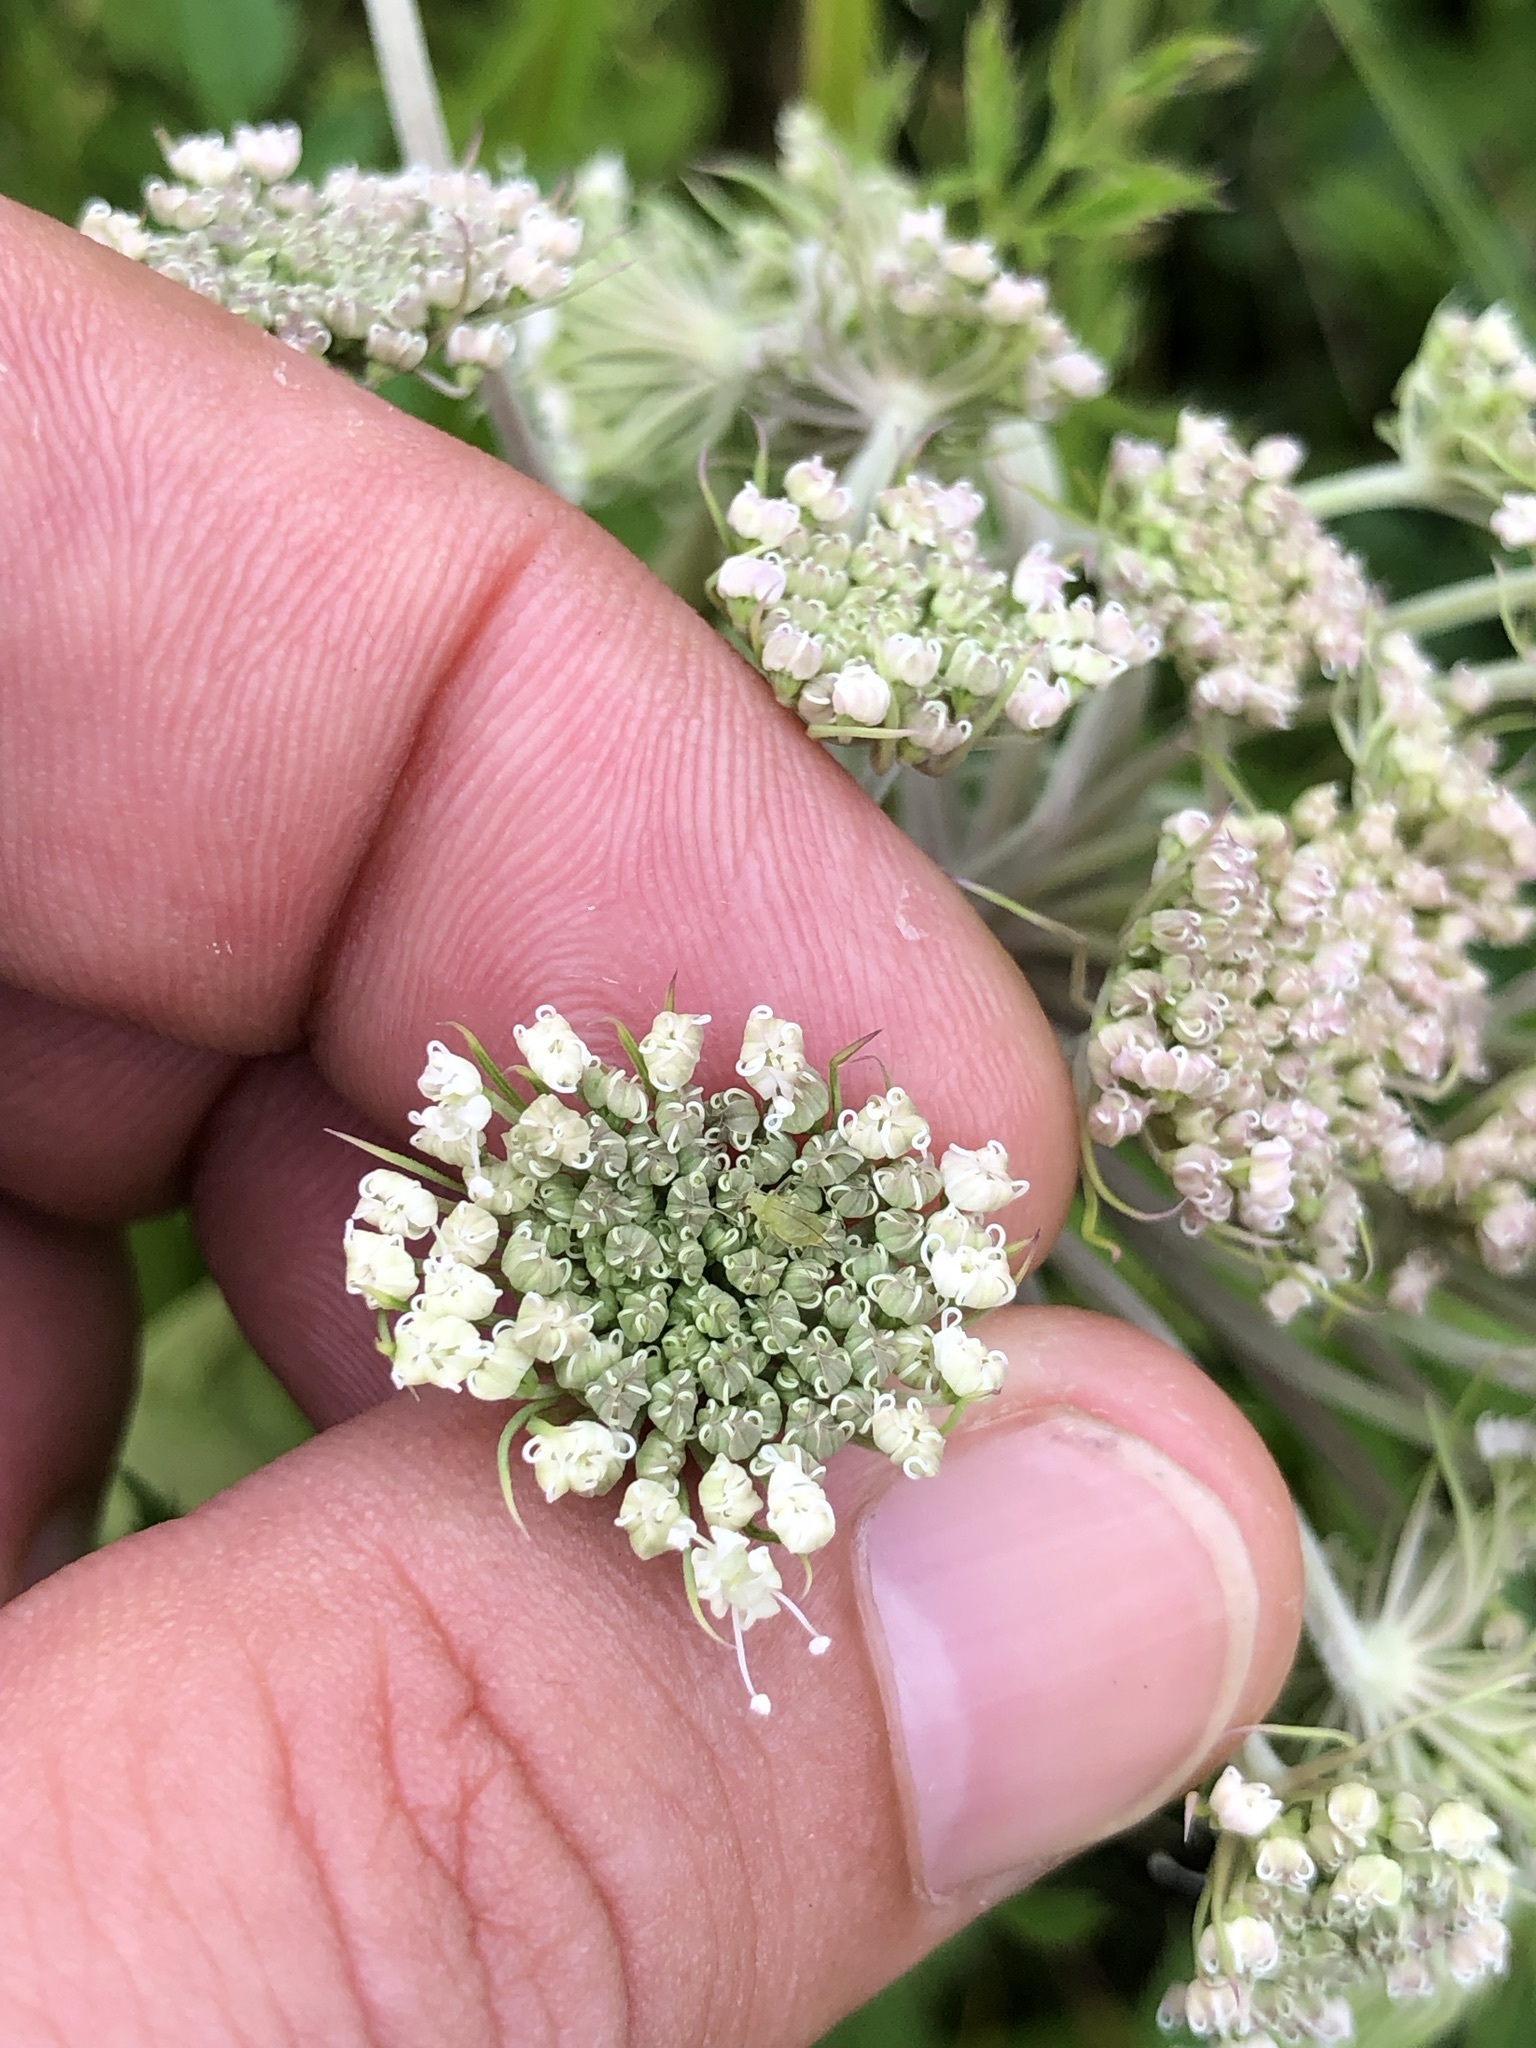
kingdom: Plantae
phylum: Tracheophyta
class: Magnoliopsida
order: Apiales
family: Apiaceae
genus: Angelica
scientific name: Angelica sylvestris
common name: Wild angelica
